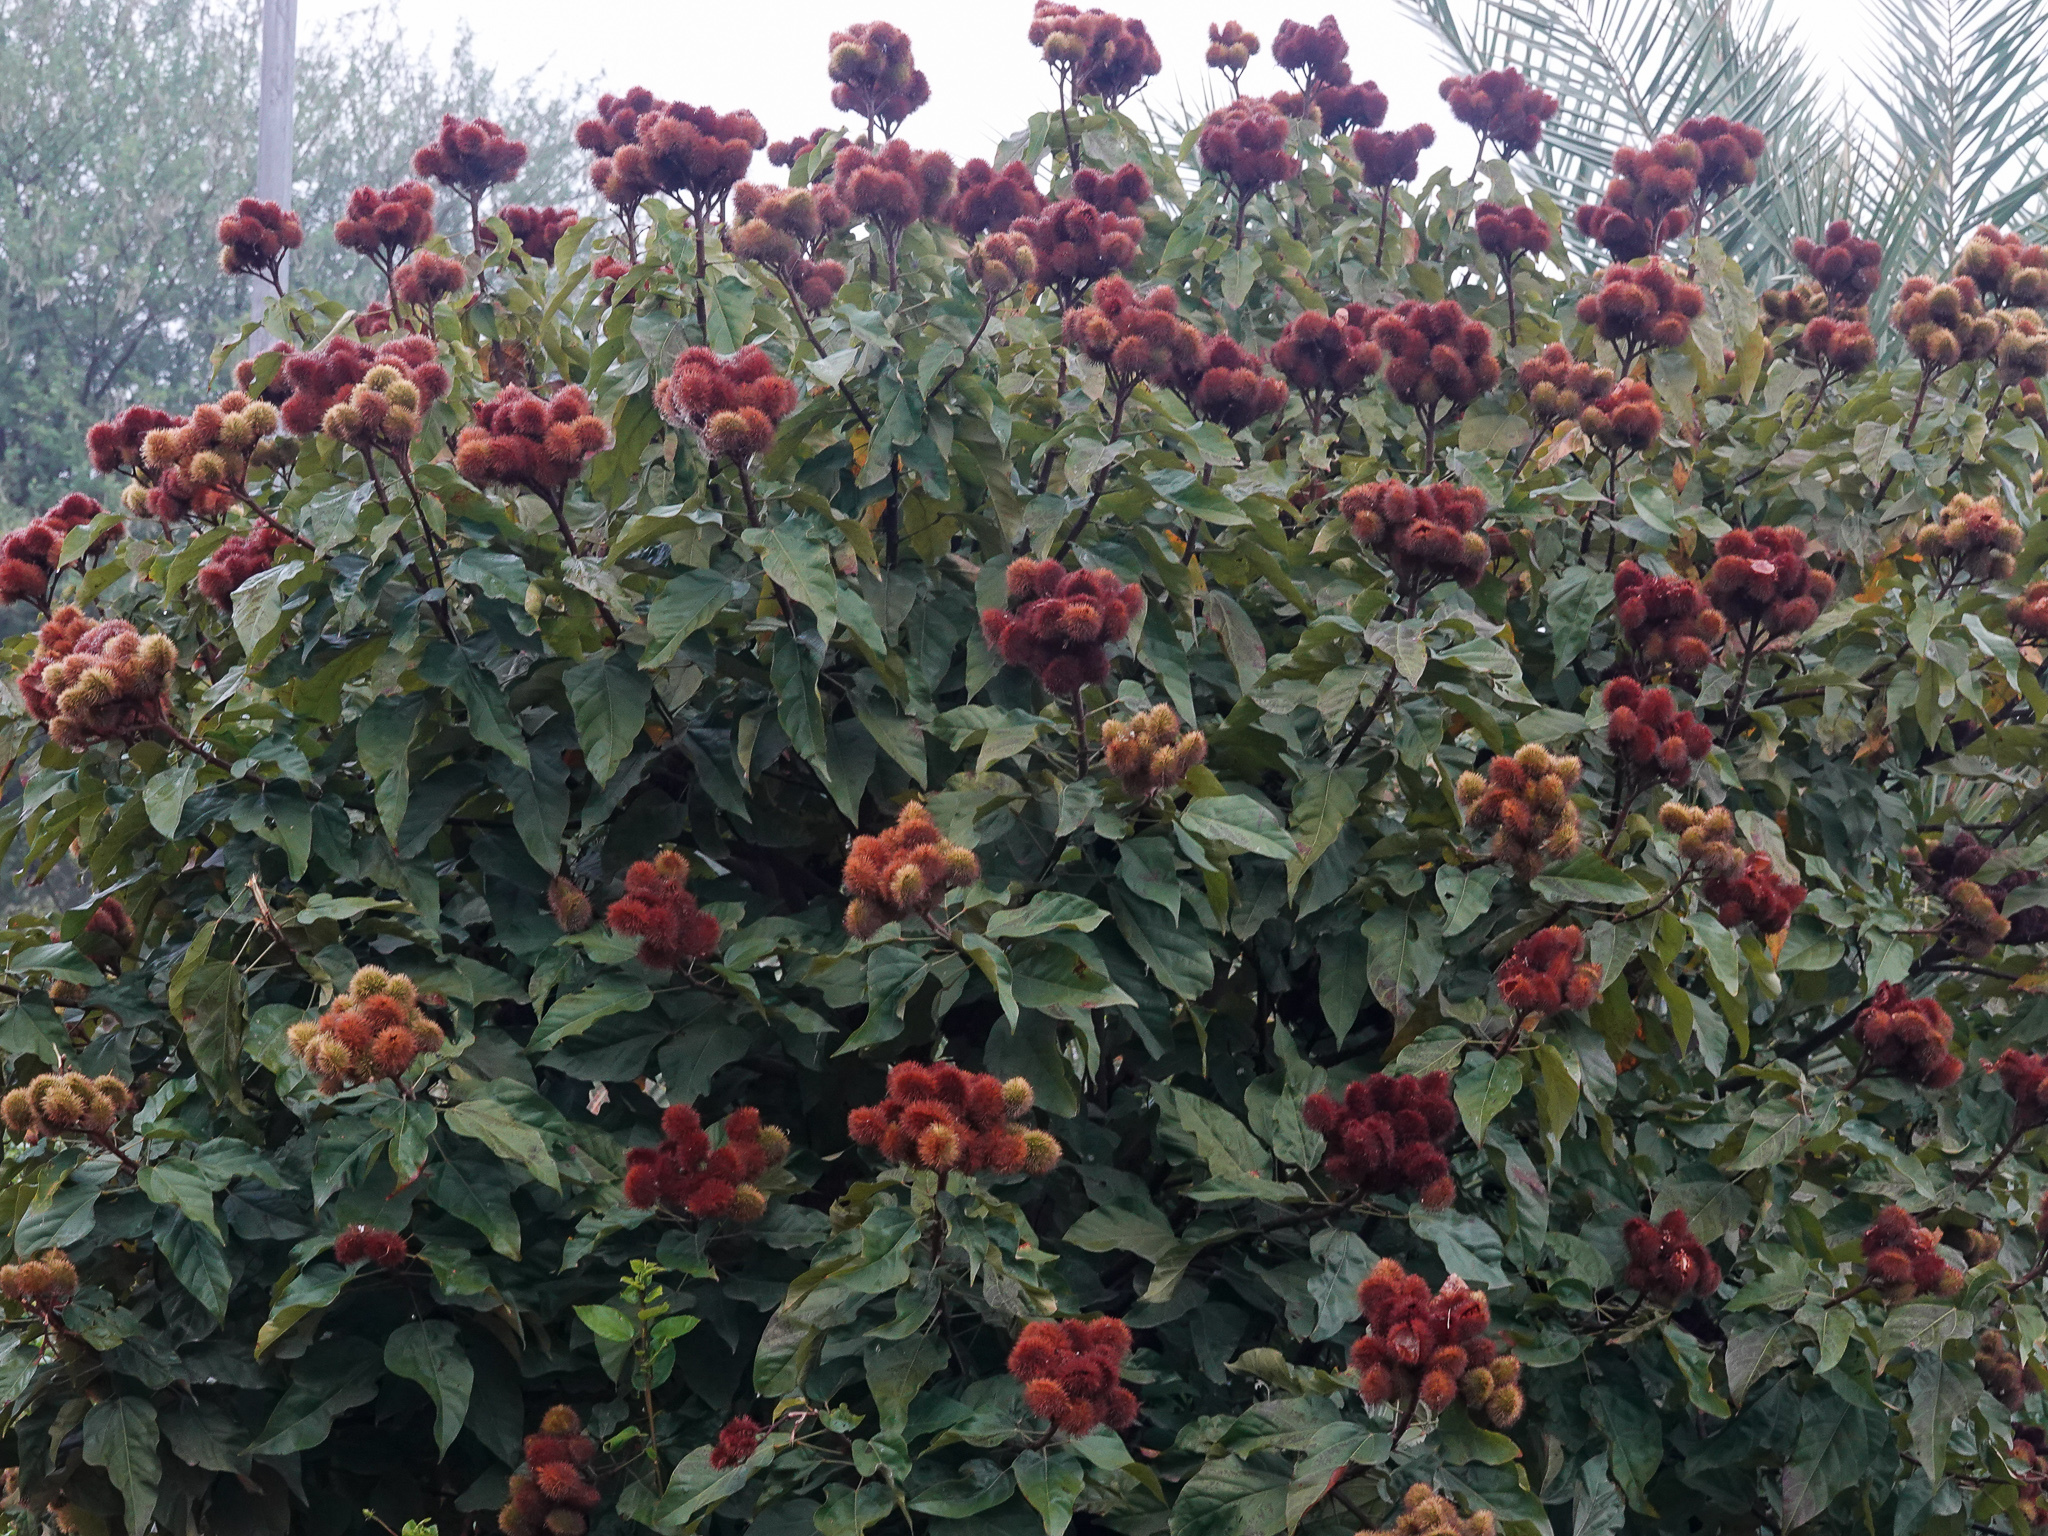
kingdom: Plantae
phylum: Tracheophyta
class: Magnoliopsida
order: Malvales
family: Bixaceae
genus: Bixa
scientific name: Bixa orellana
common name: Lipsticktree
